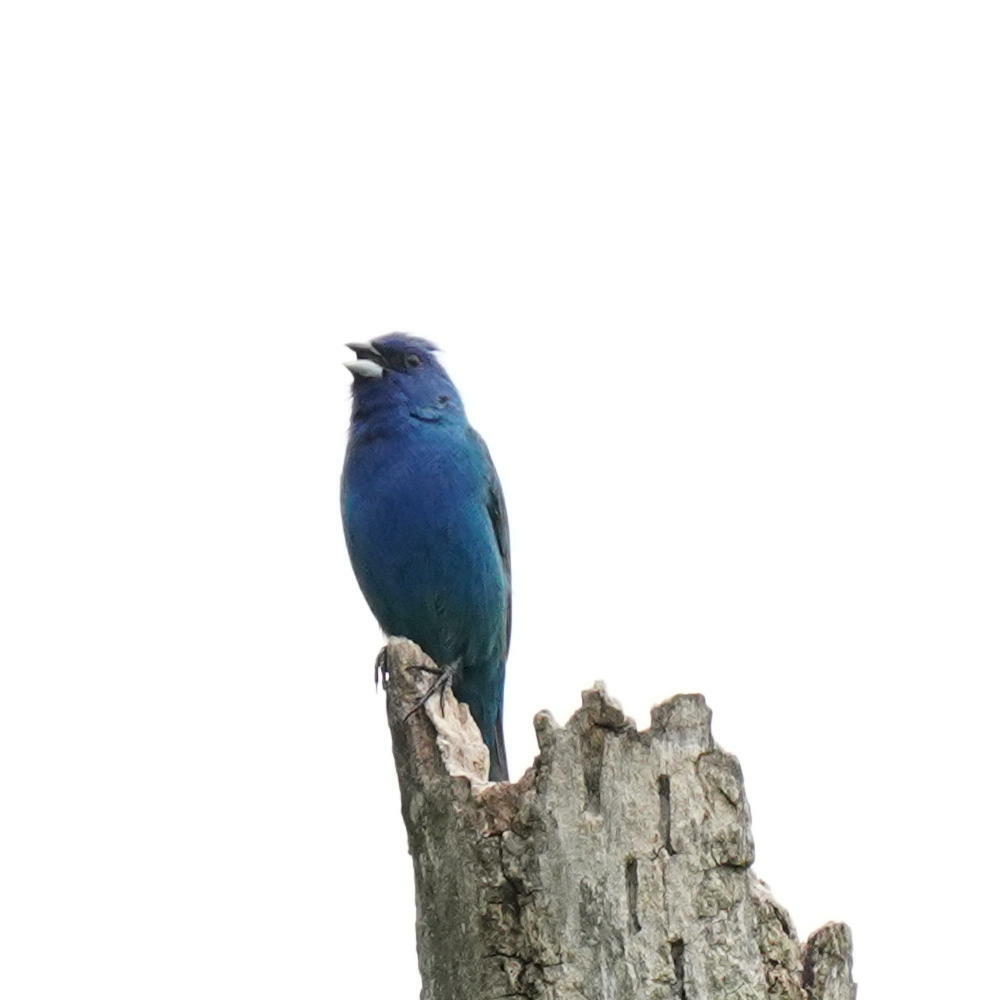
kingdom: Animalia
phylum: Chordata
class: Aves
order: Passeriformes
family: Cardinalidae
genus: Passerina
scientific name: Passerina cyanea
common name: Indigo bunting
